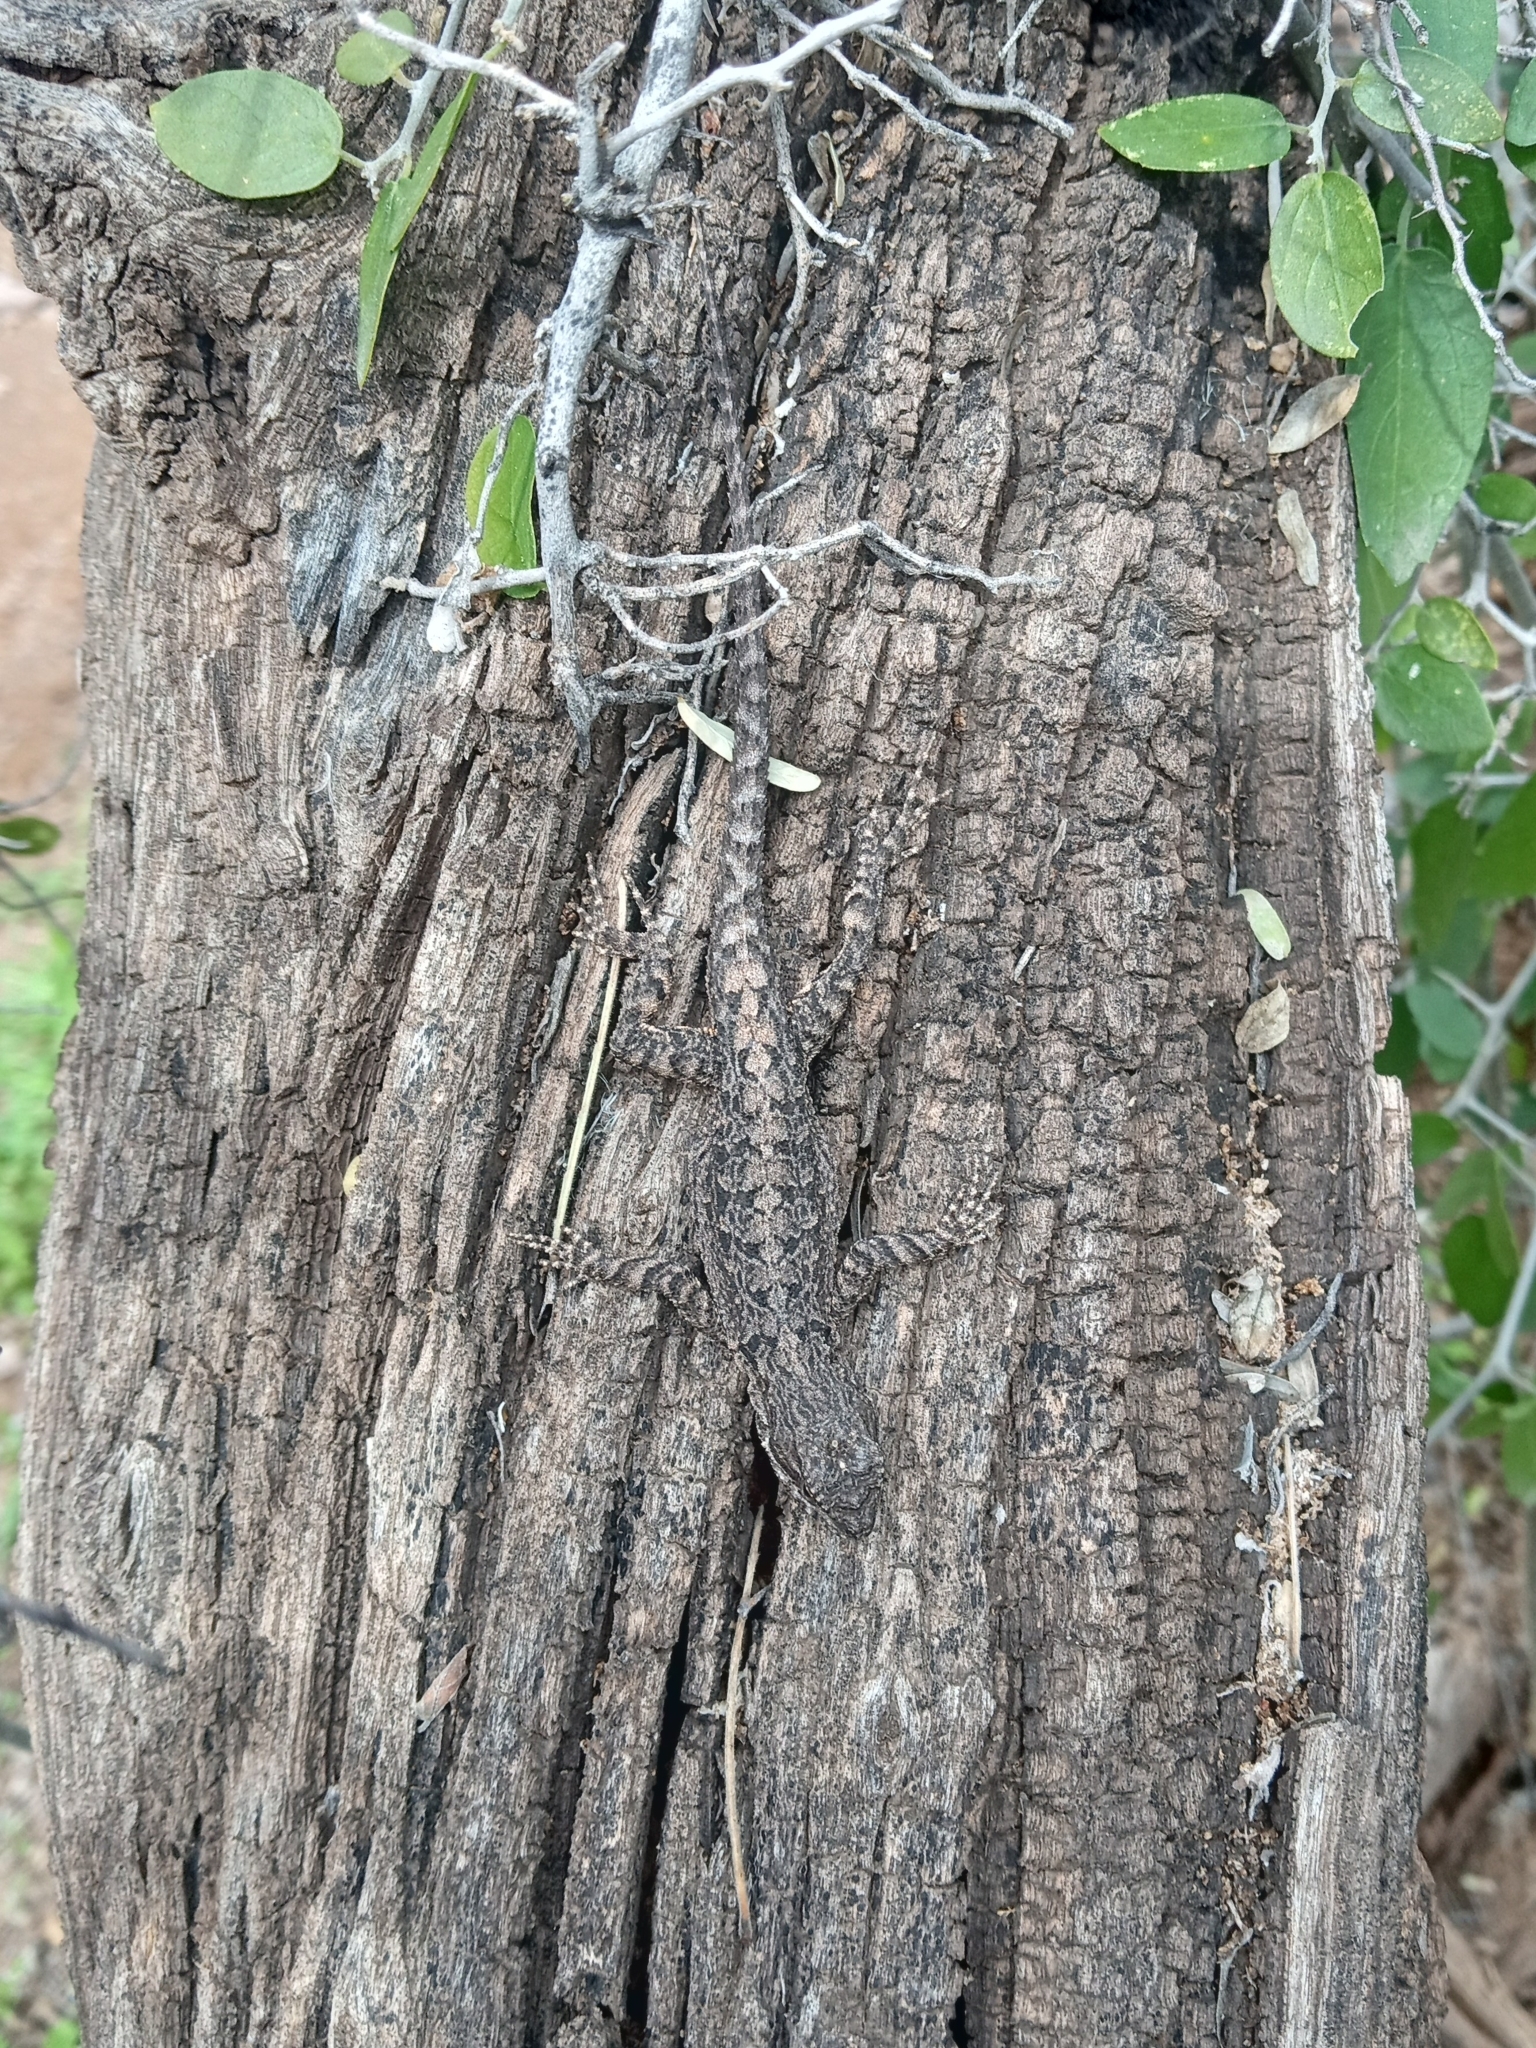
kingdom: Animalia
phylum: Chordata
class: Squamata
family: Phrynosomatidae
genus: Urosaurus
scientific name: Urosaurus ornatus
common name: Ornate tree lizard
